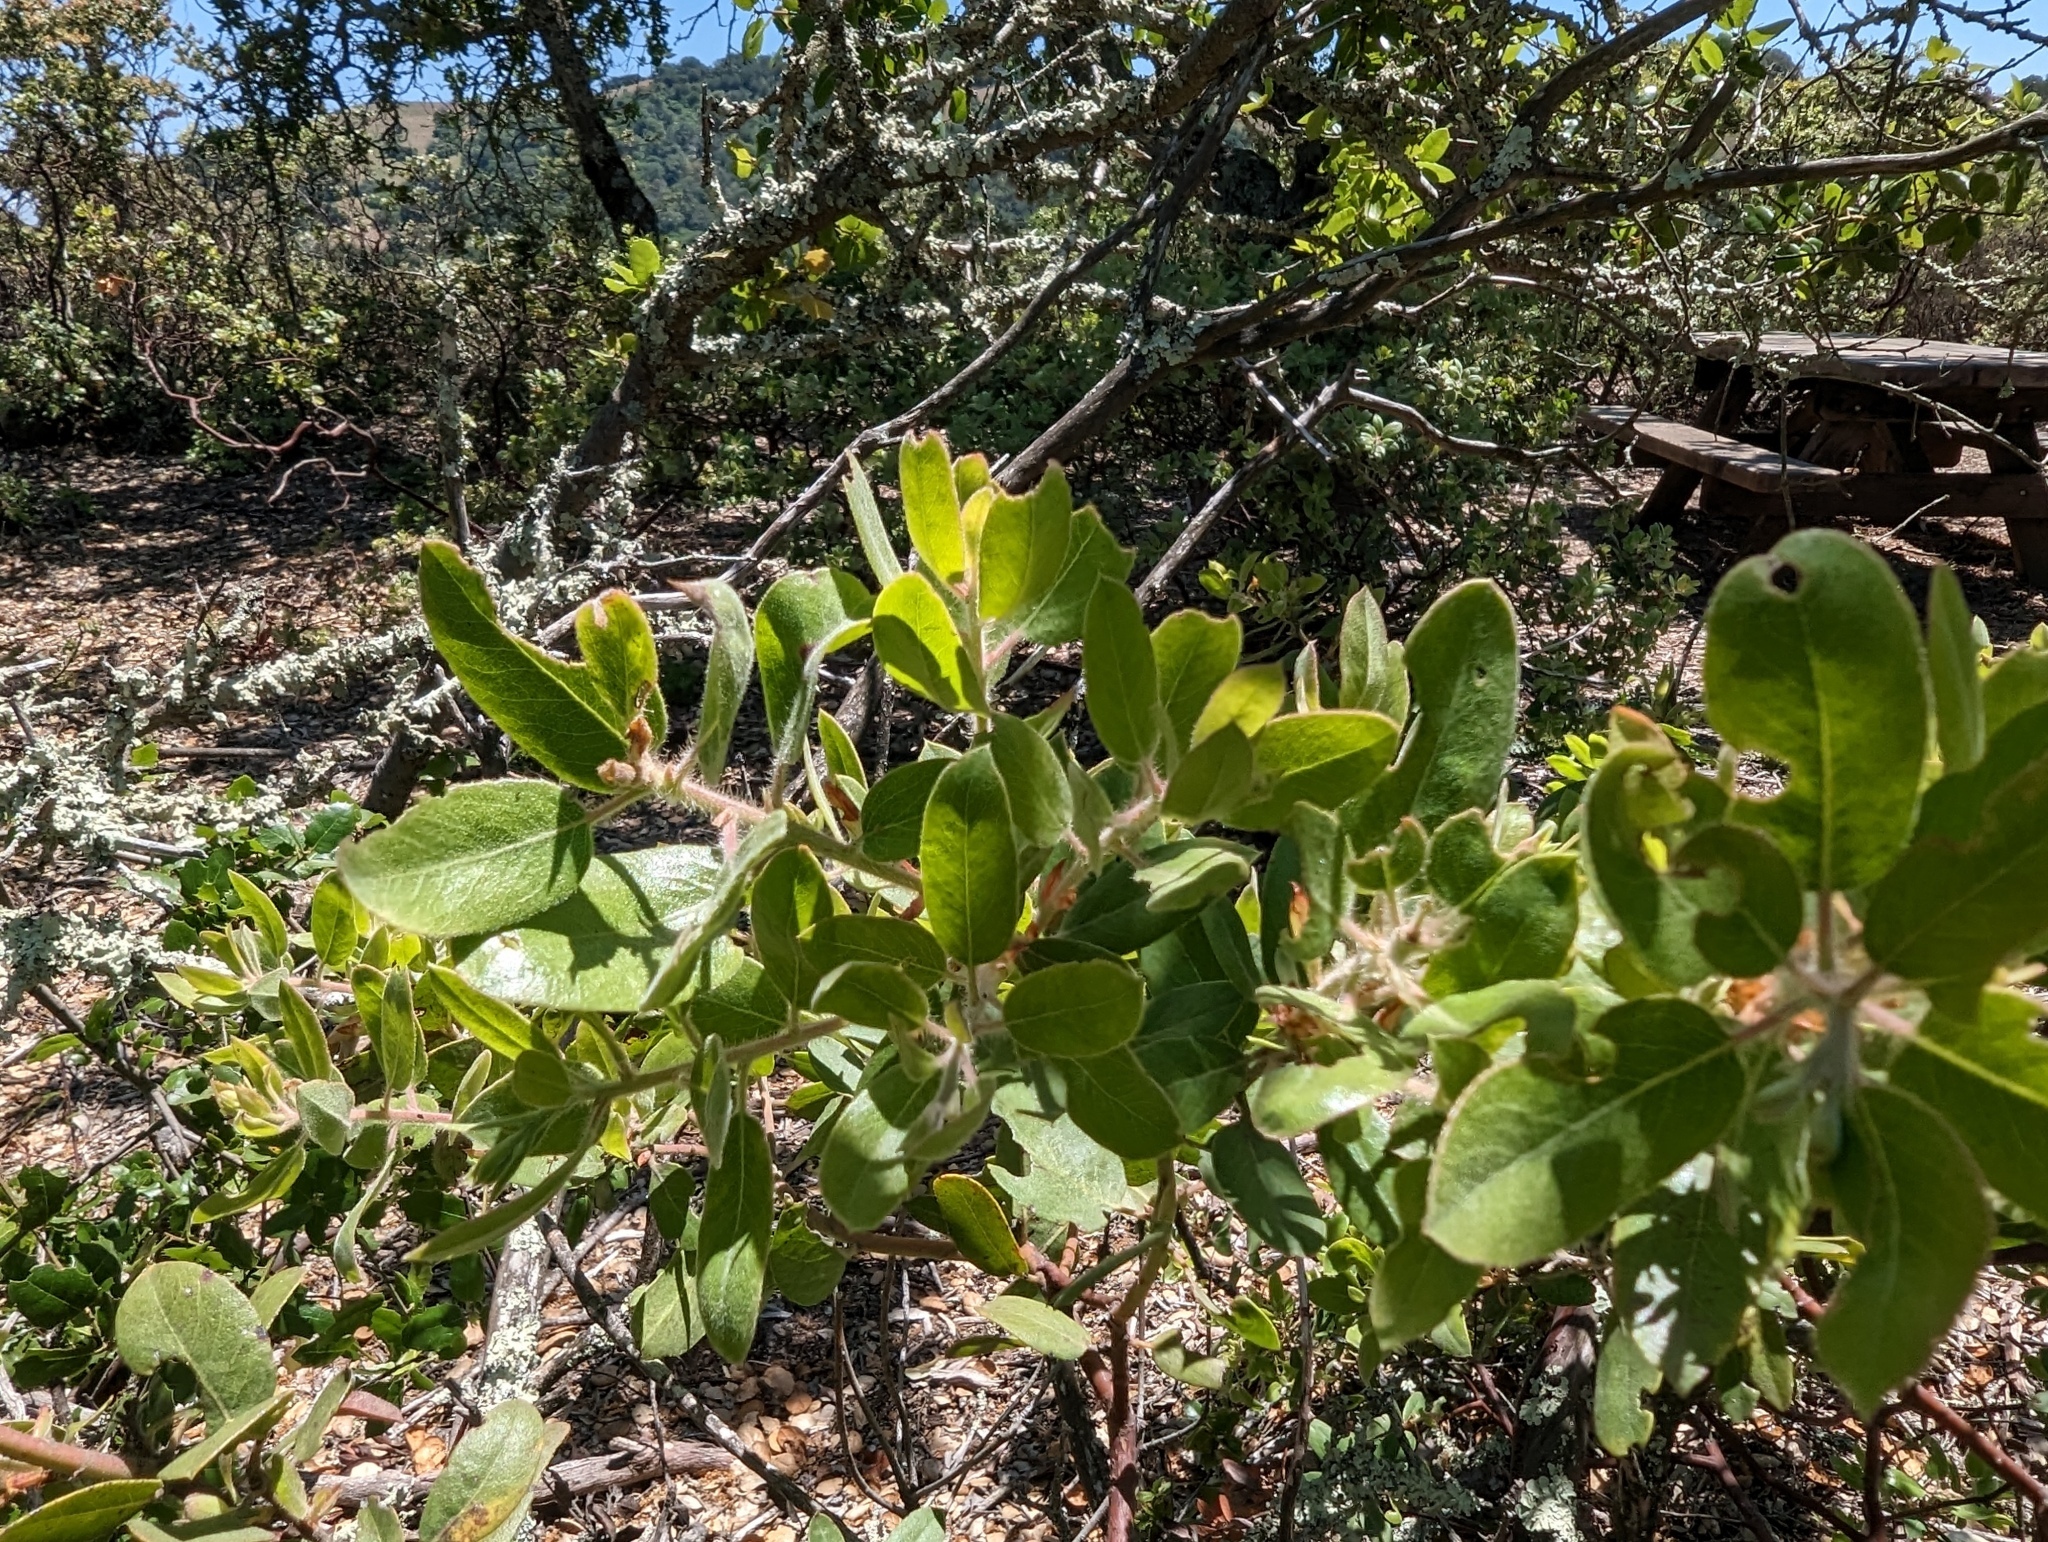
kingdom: Plantae
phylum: Tracheophyta
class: Magnoliopsida
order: Ericales
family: Ericaceae
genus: Arctostaphylos
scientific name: Arctostaphylos glandulosa
